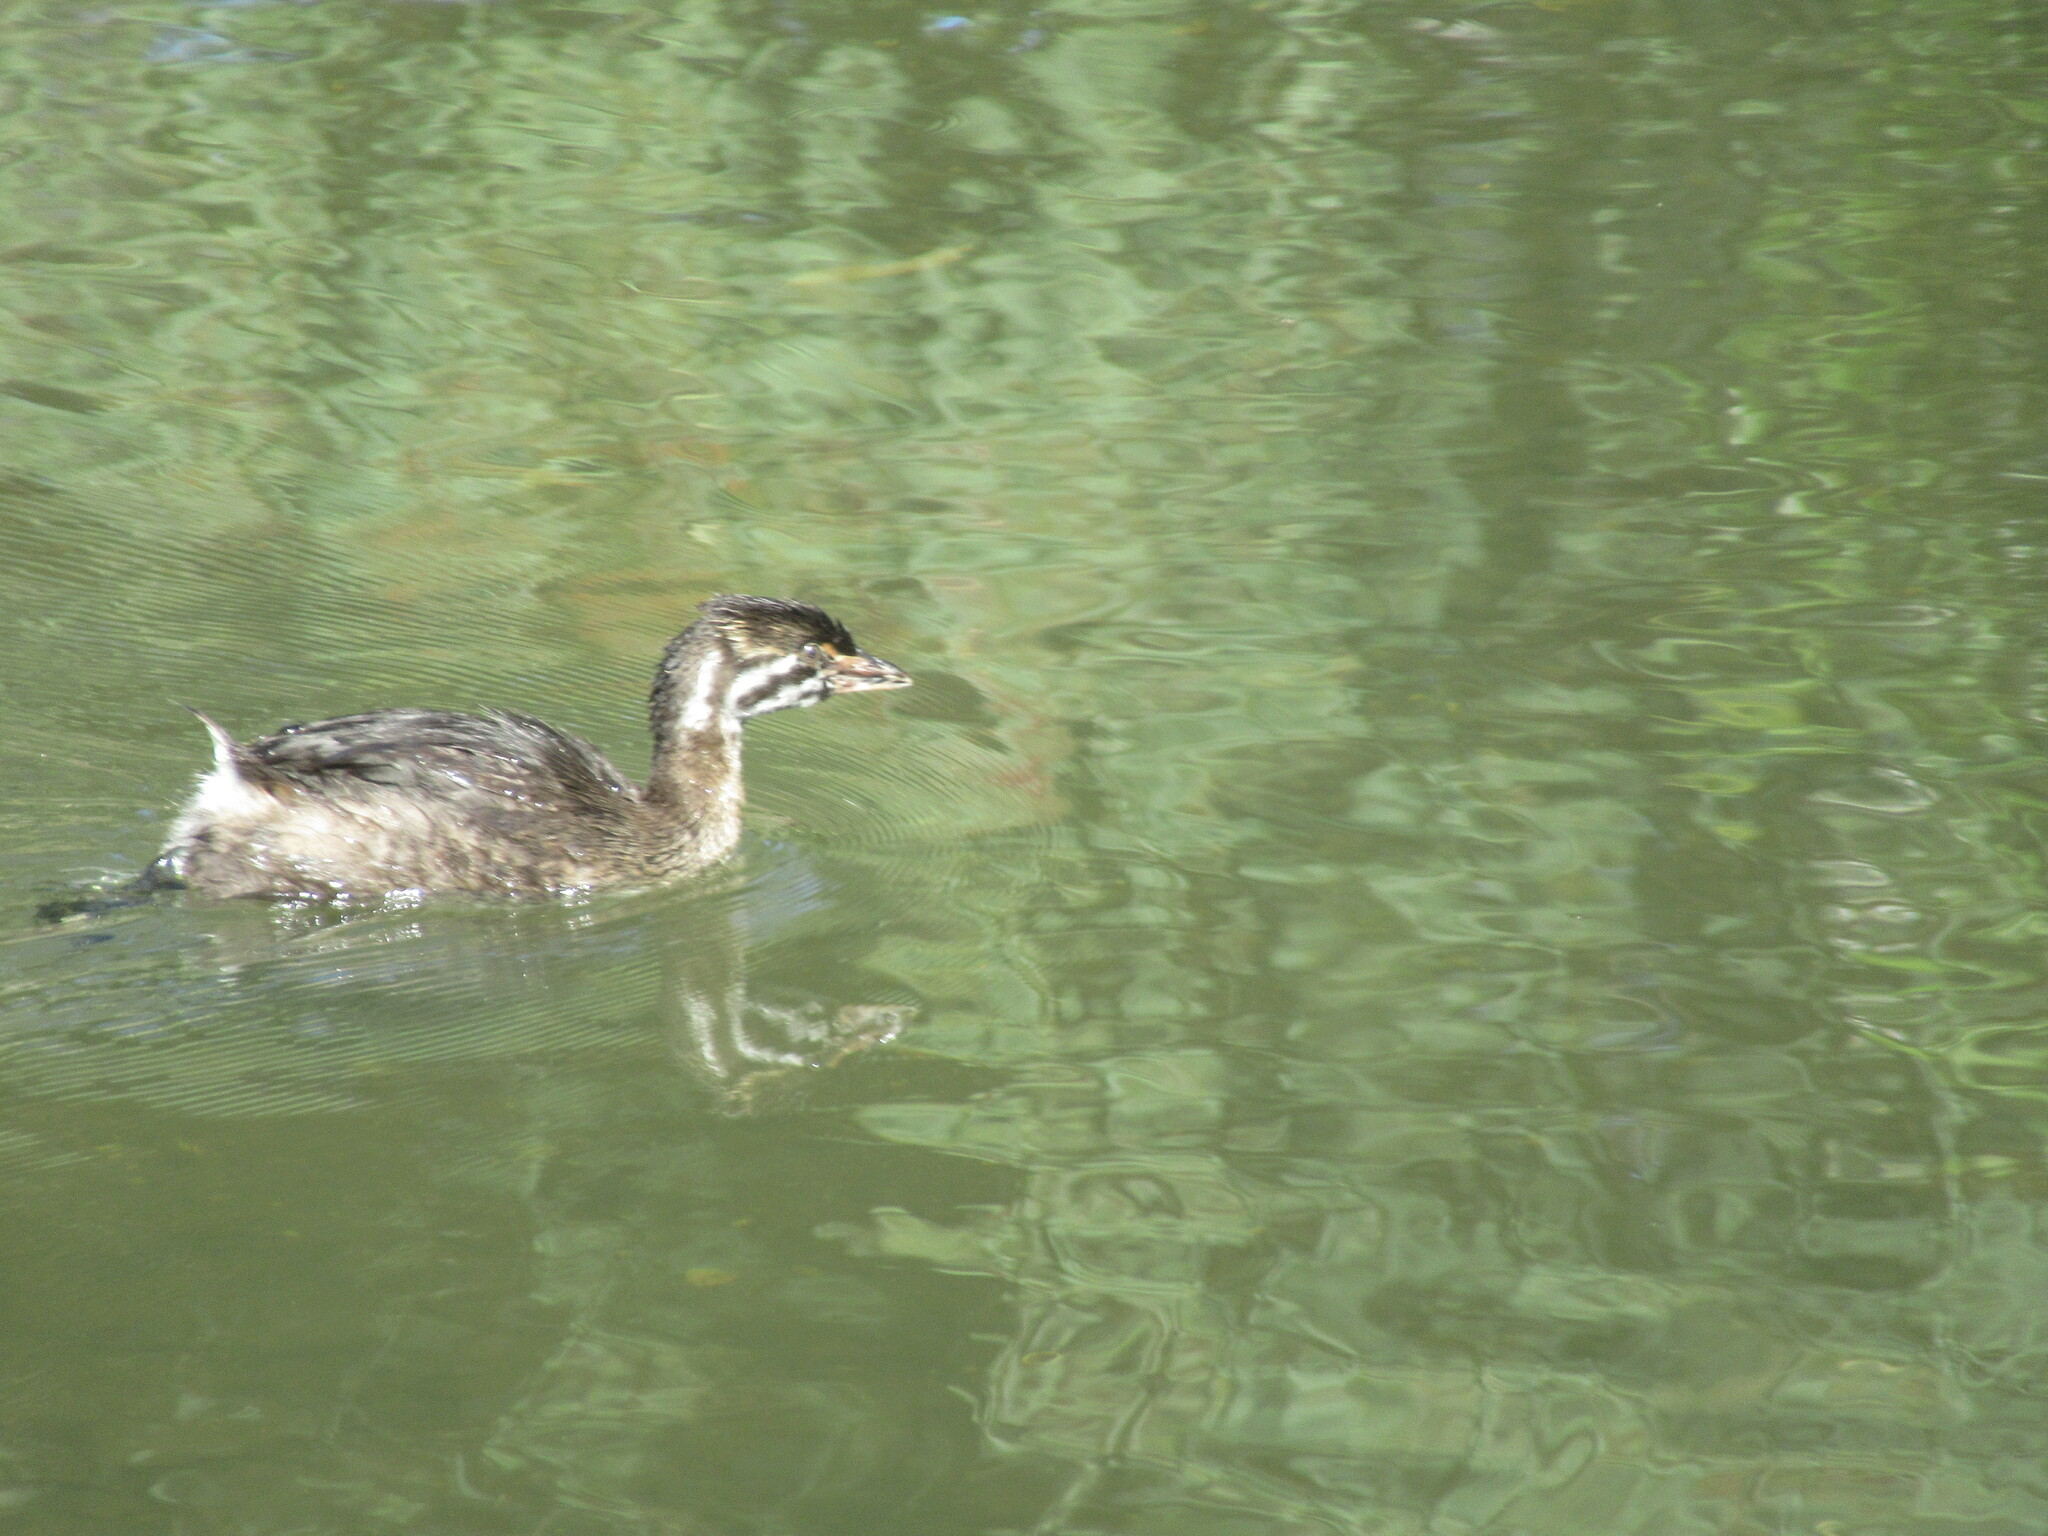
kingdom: Animalia
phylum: Chordata
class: Aves
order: Podicipediformes
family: Podicipedidae
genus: Podilymbus
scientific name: Podilymbus podiceps
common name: Pied-billed grebe
